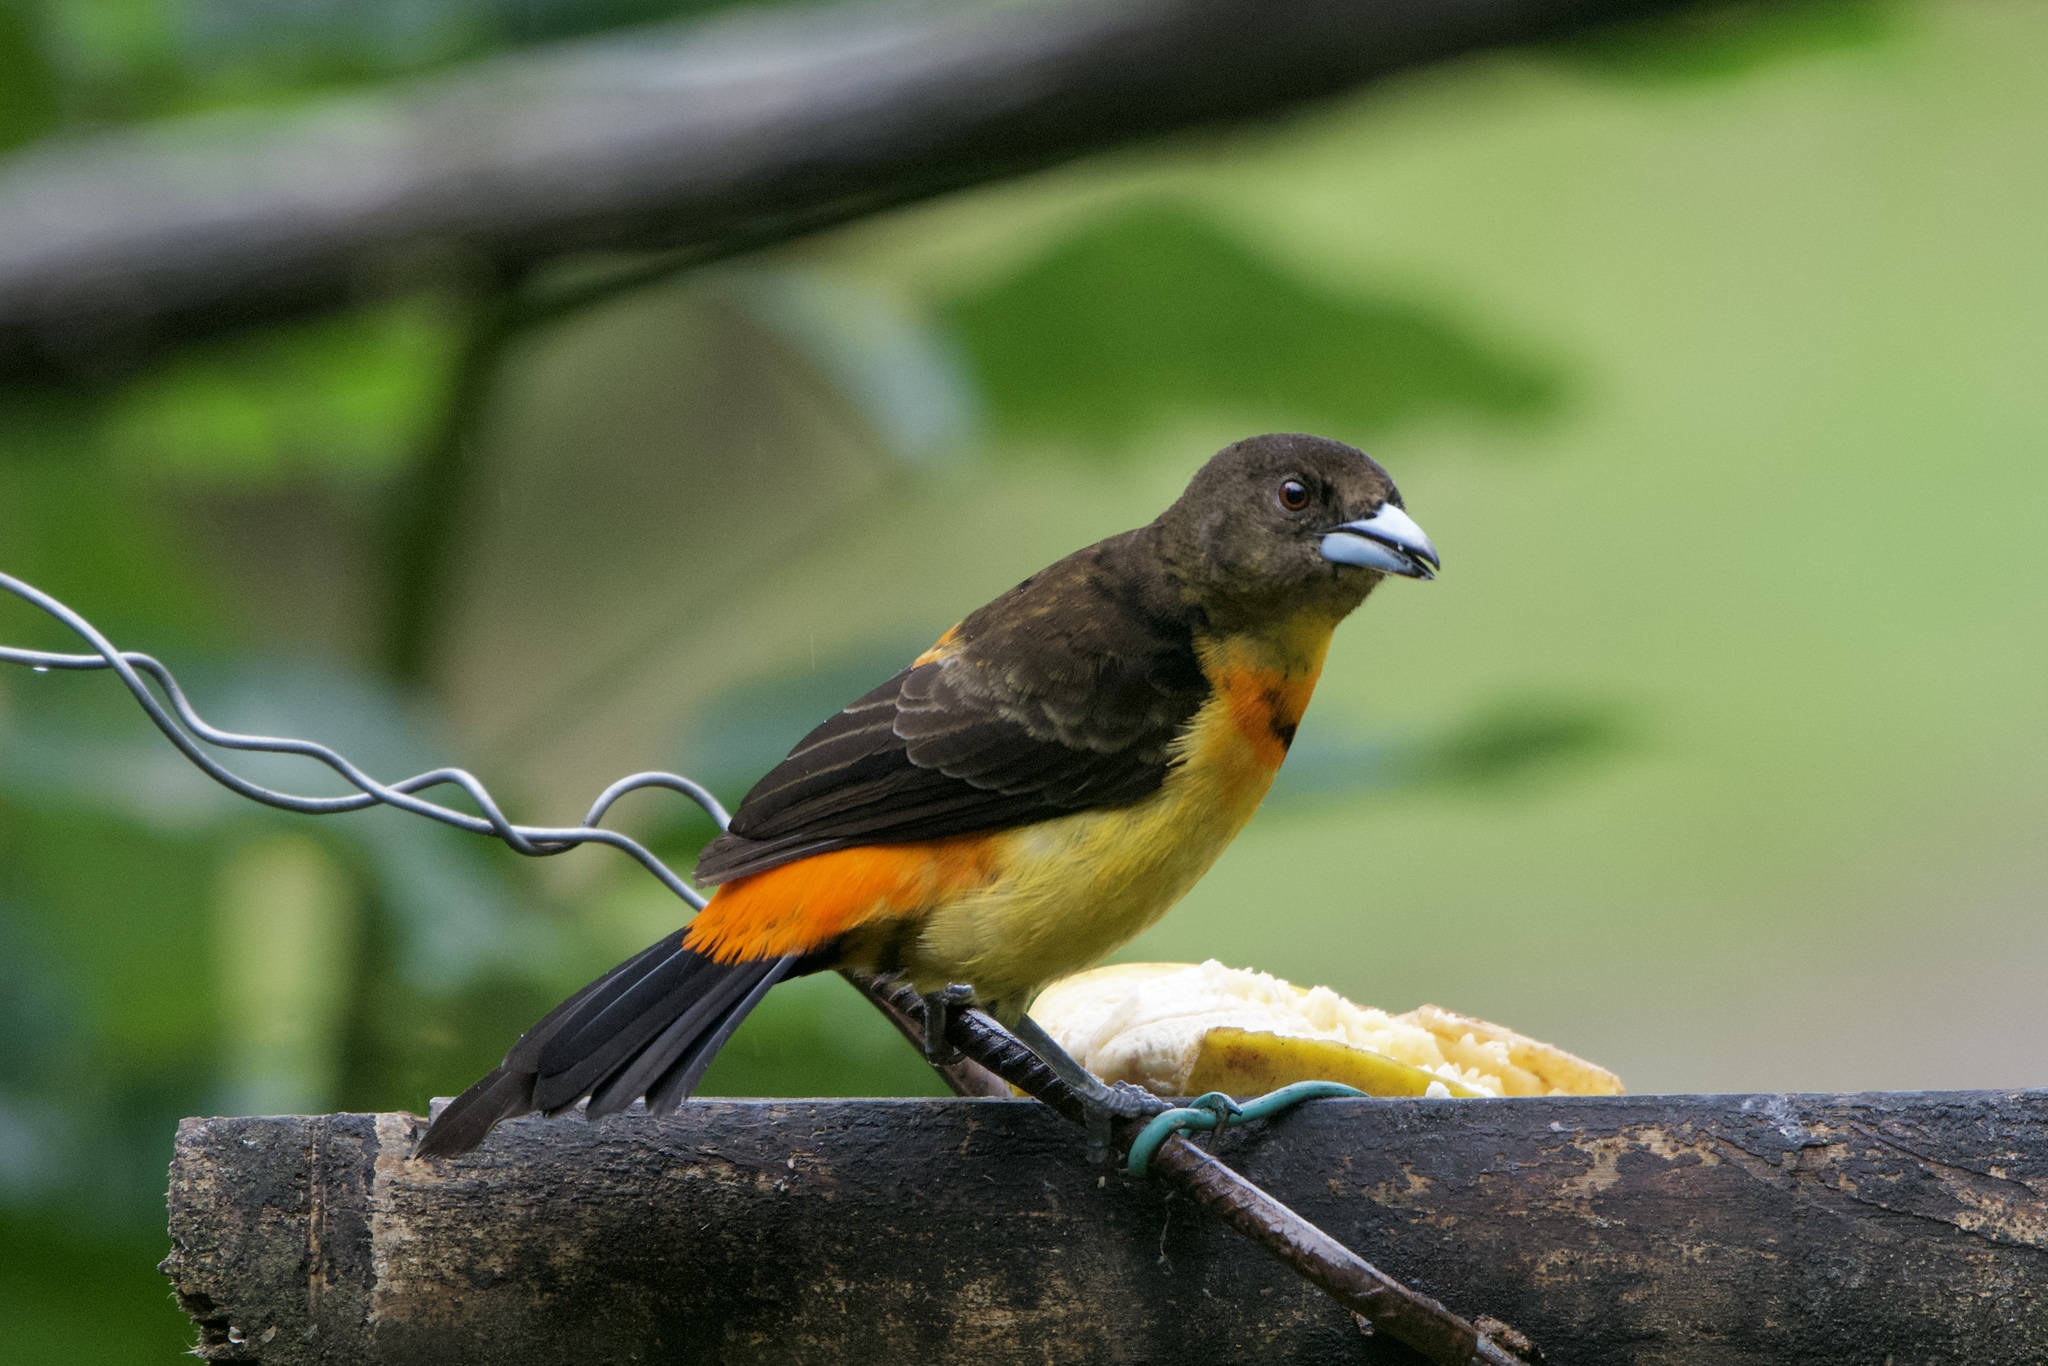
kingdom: Animalia
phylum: Chordata
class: Aves
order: Passeriformes
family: Thraupidae
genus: Ramphocelus
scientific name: Ramphocelus flammigerus
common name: Flame-rumped tanager
